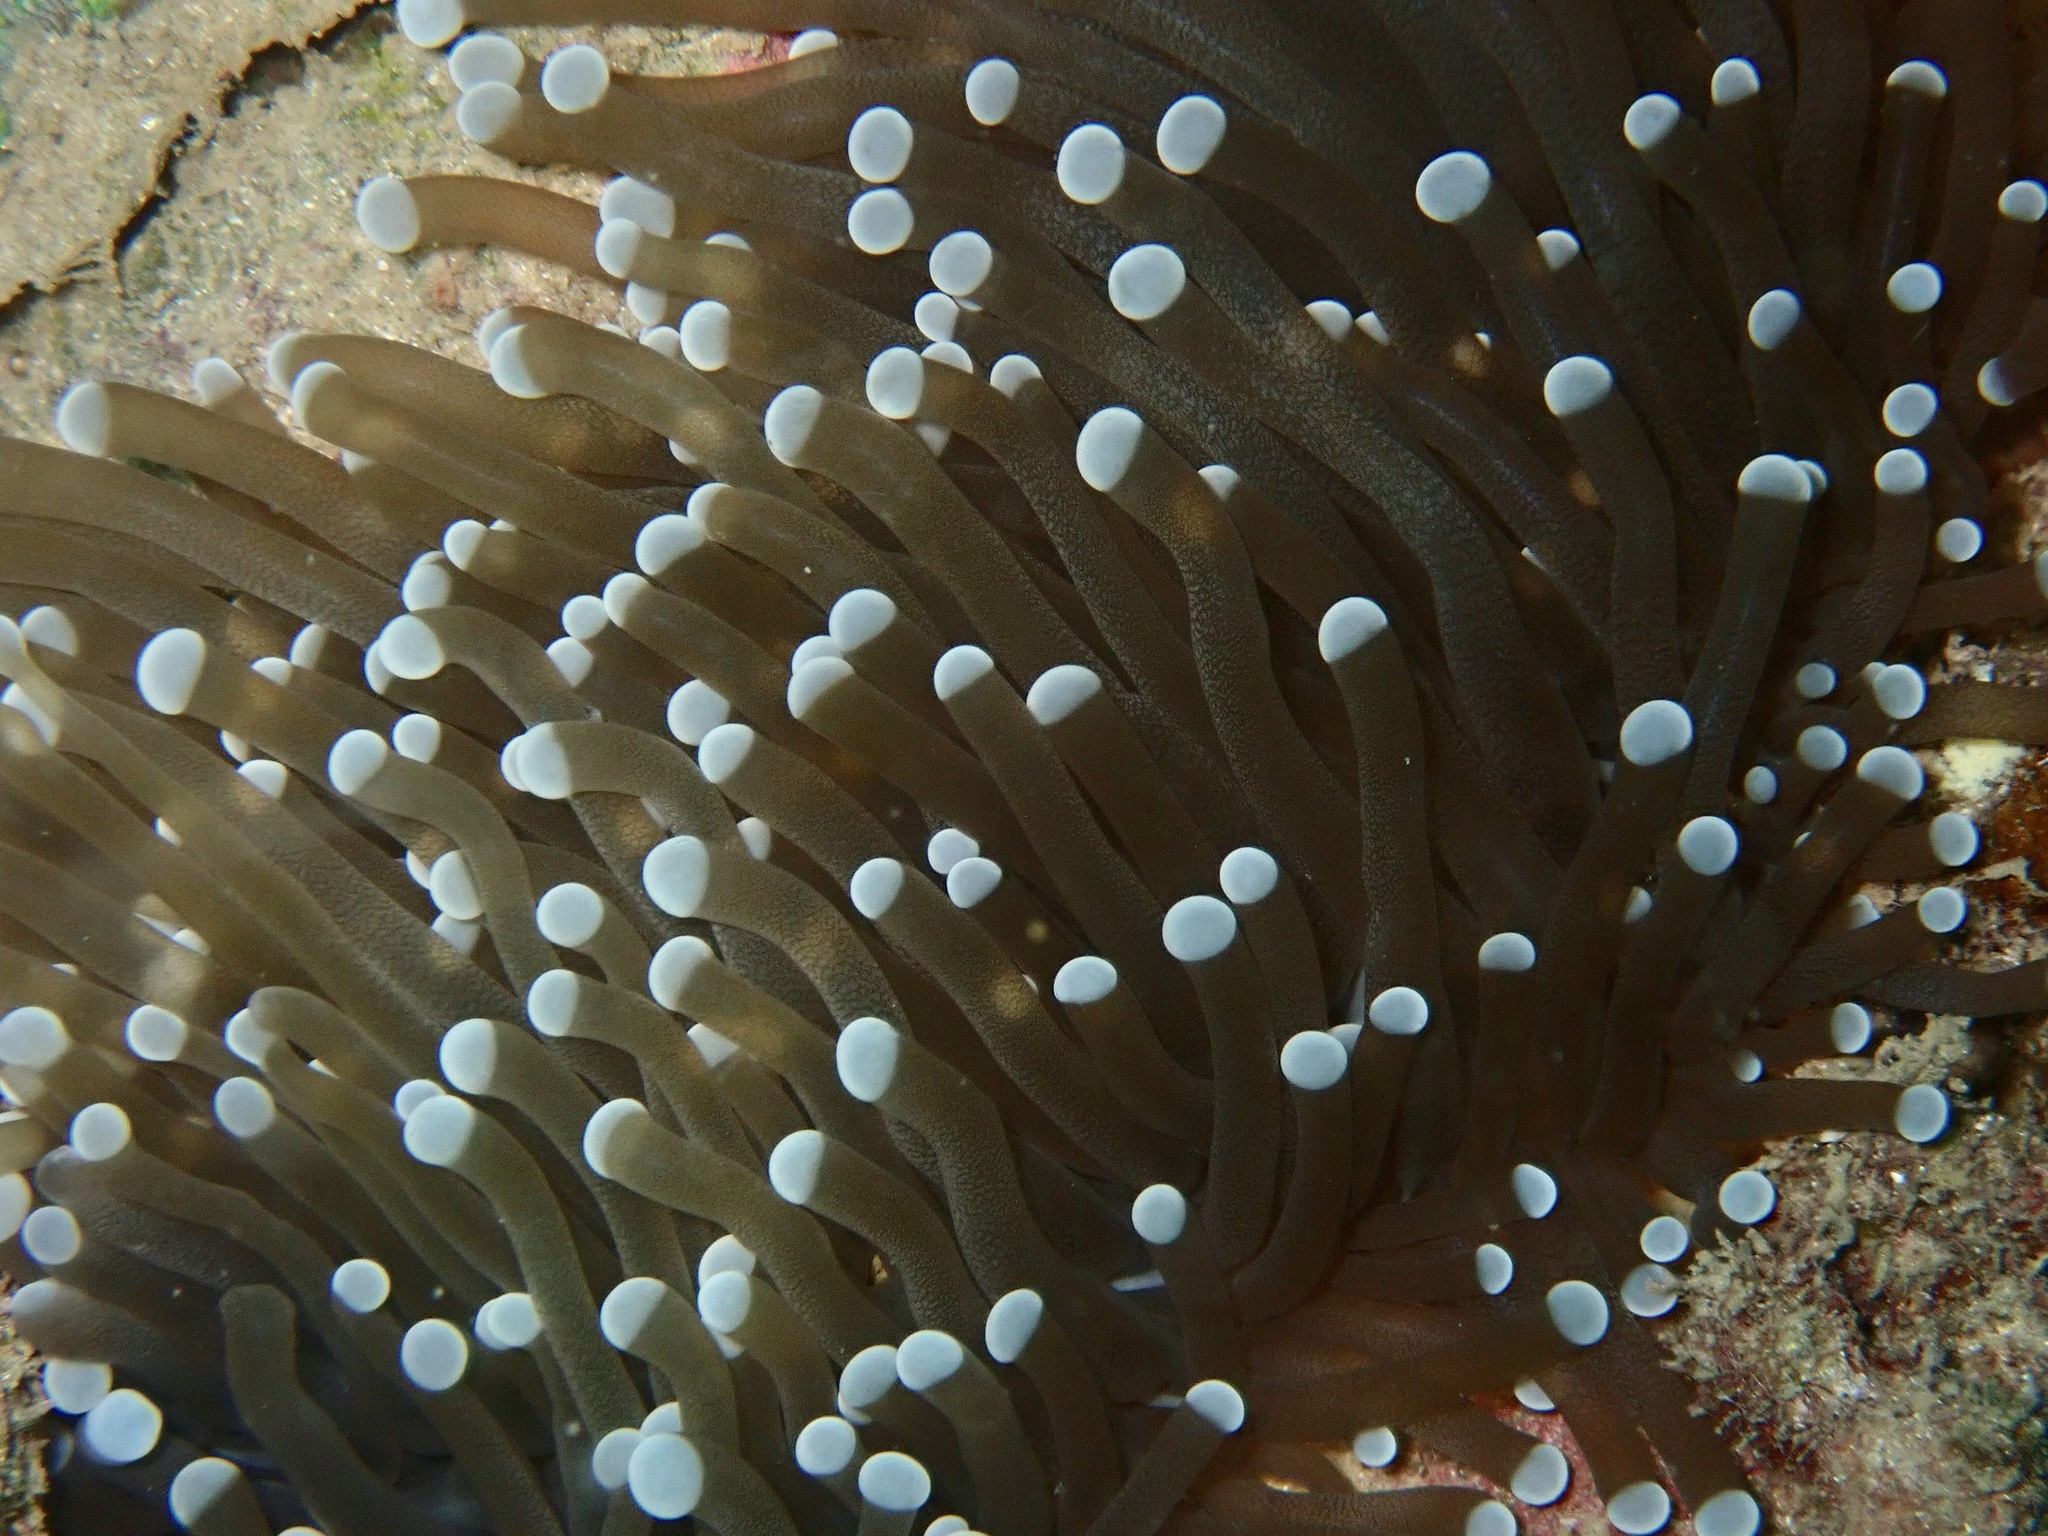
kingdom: Animalia
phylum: Cnidaria
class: Anthozoa
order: Scleractinia
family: Euphylliidae
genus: Euphyllia
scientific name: Euphyllia glabrescens
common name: Joker coral
